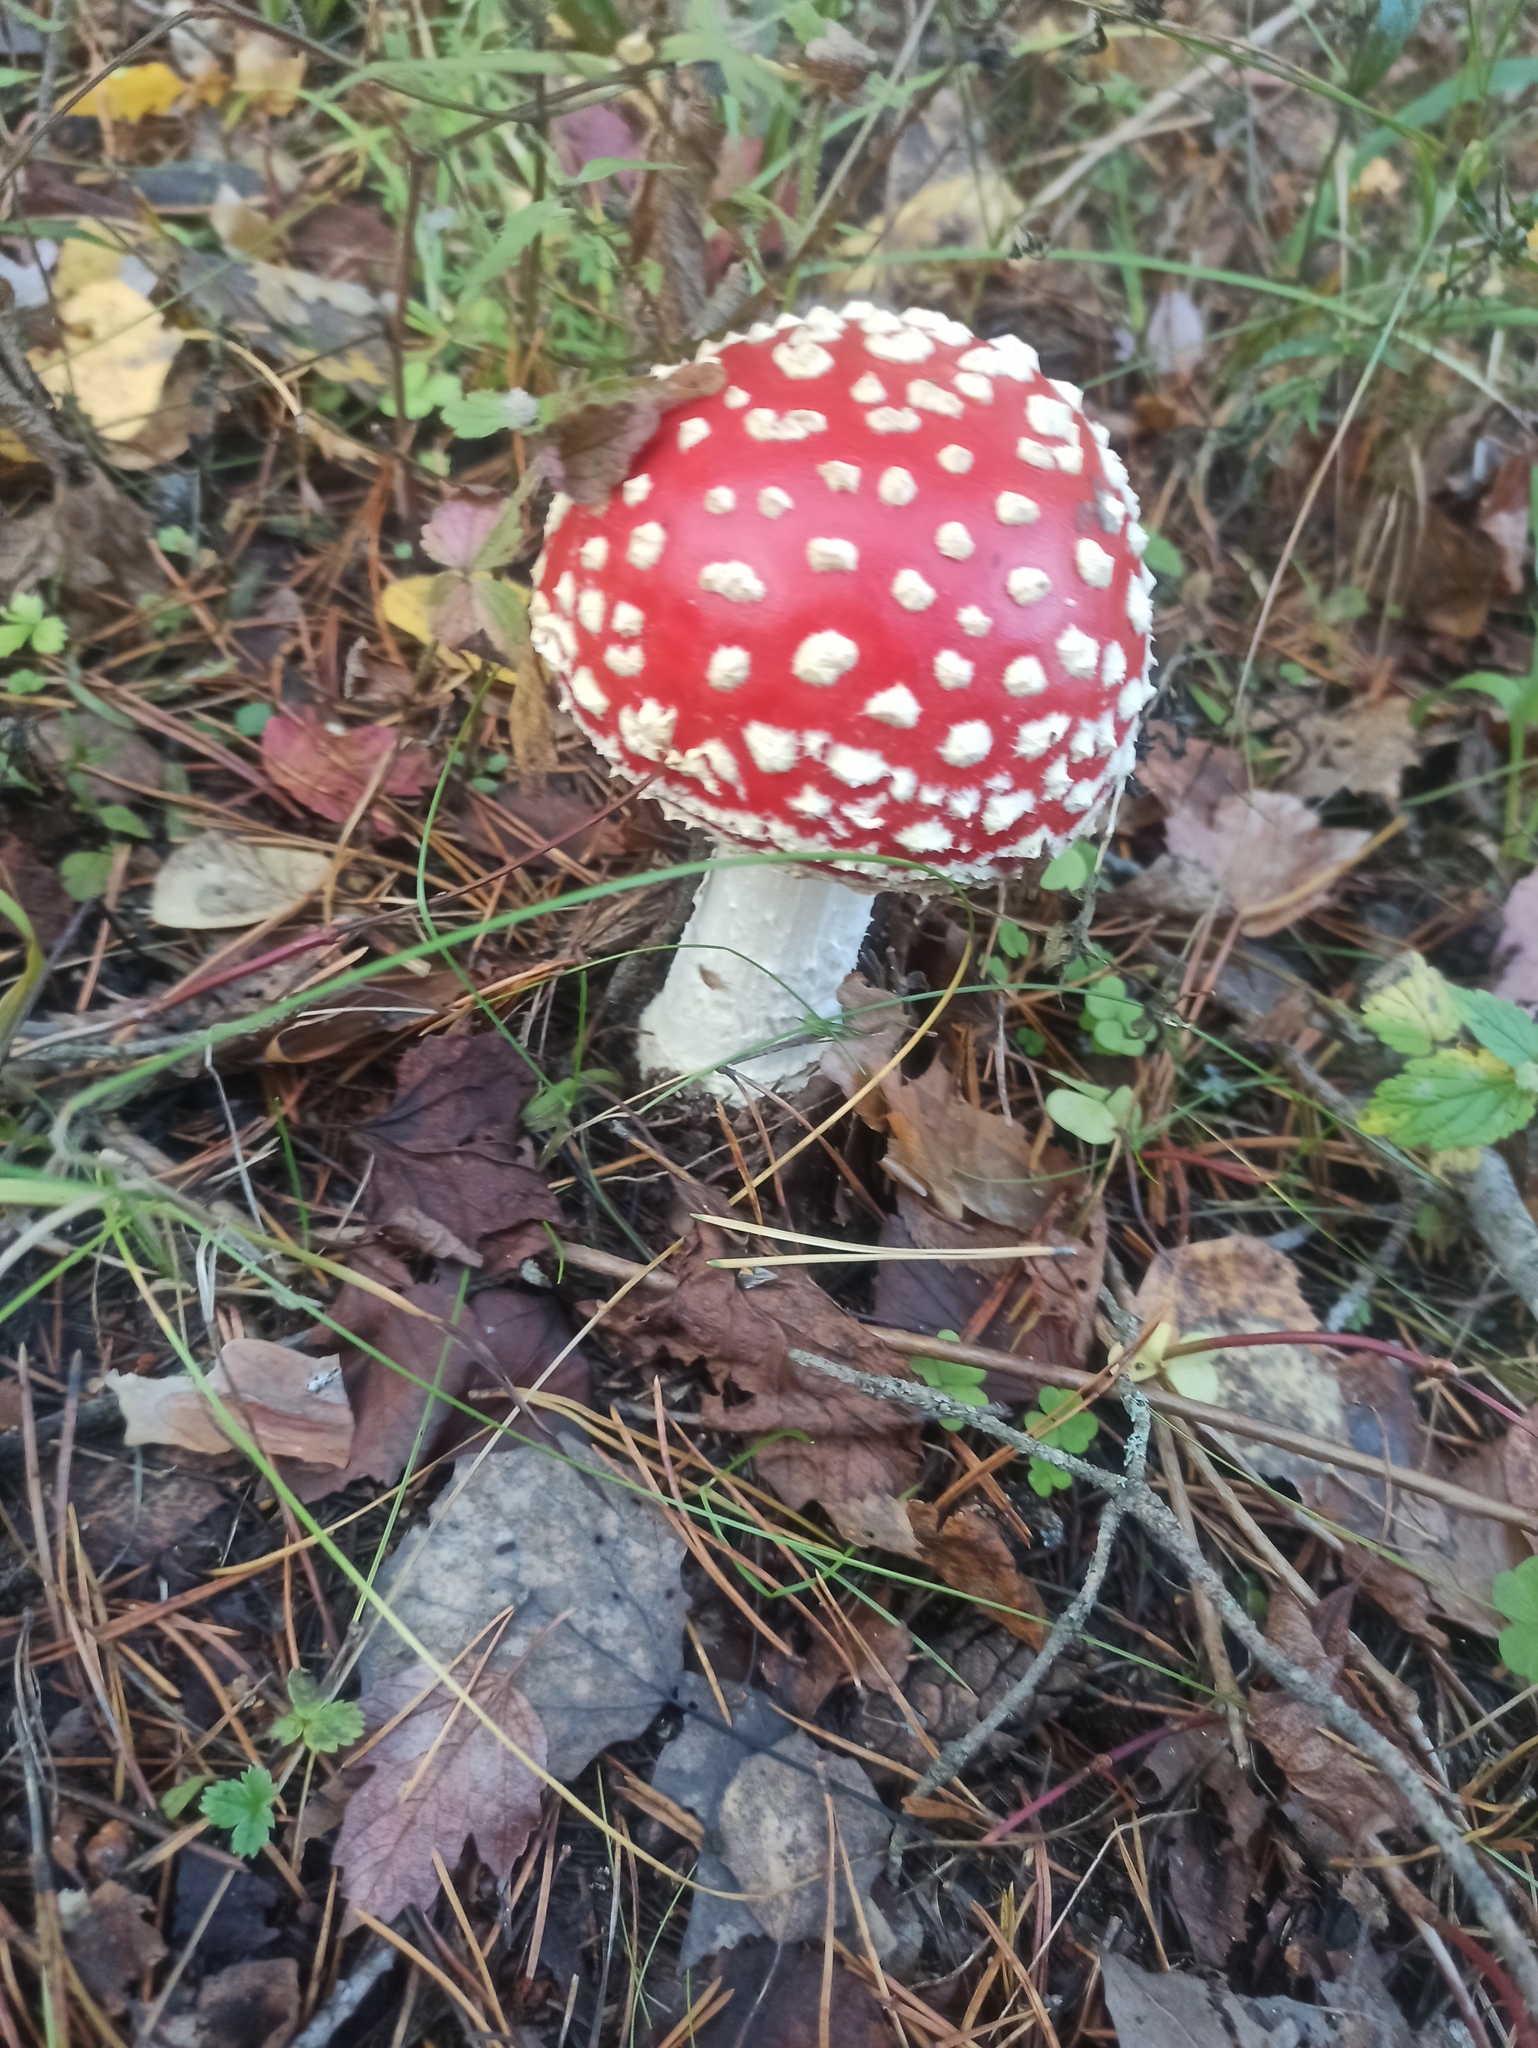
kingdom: Fungi
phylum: Basidiomycota
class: Agaricomycetes
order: Agaricales
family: Amanitaceae
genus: Amanita
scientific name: Amanita muscaria
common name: Fly agaric
